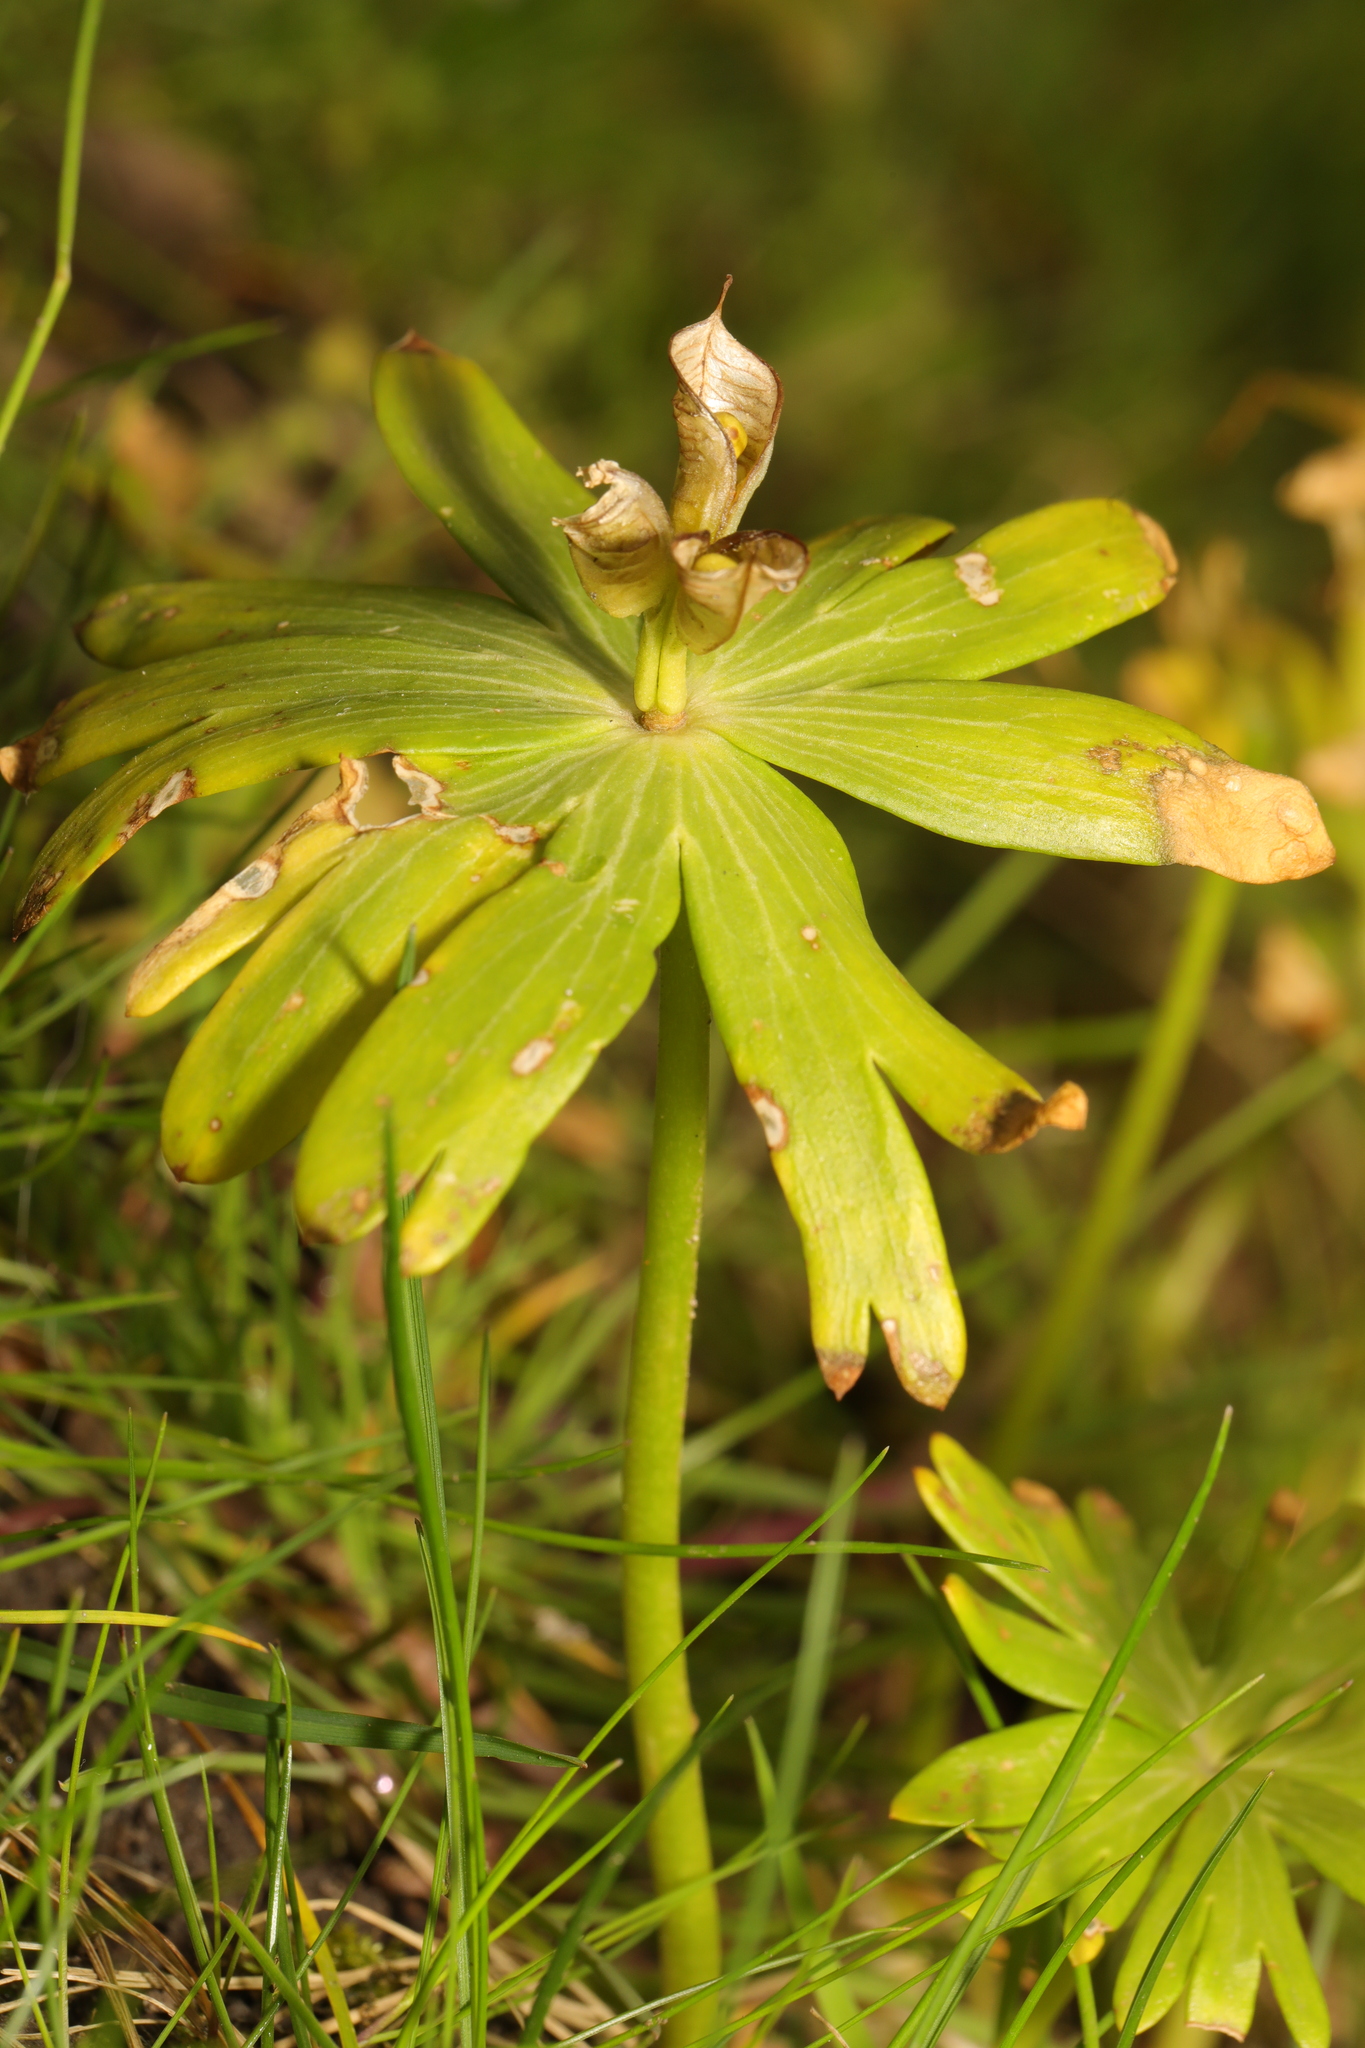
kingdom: Plantae
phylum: Tracheophyta
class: Magnoliopsida
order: Ranunculales
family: Ranunculaceae
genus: Eranthis
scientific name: Eranthis hyemalis
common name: Winter aconite
